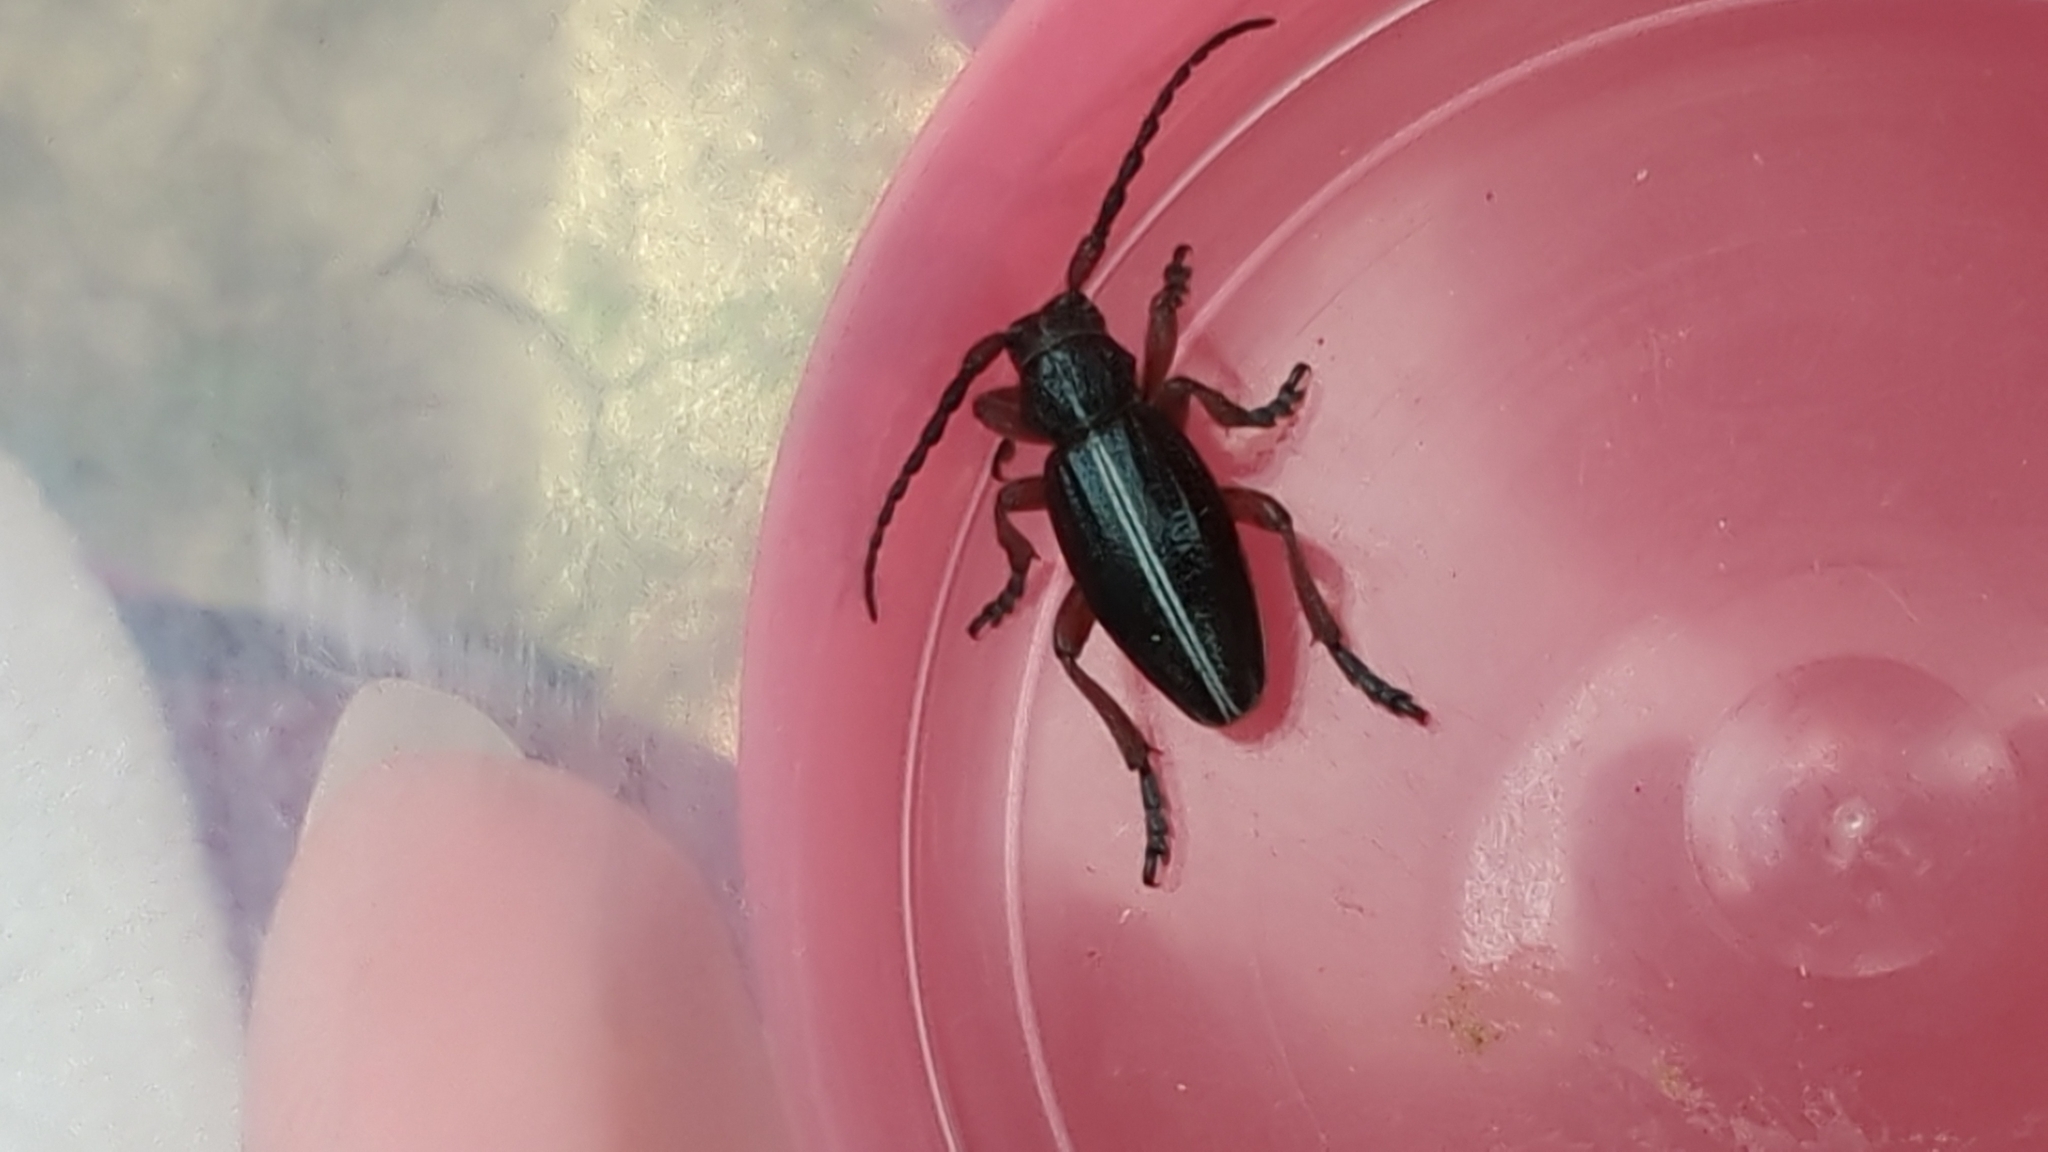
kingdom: Animalia
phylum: Arthropoda
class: Insecta
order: Coleoptera
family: Cerambycidae
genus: Dorcadion
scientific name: Dorcadion pedestre
